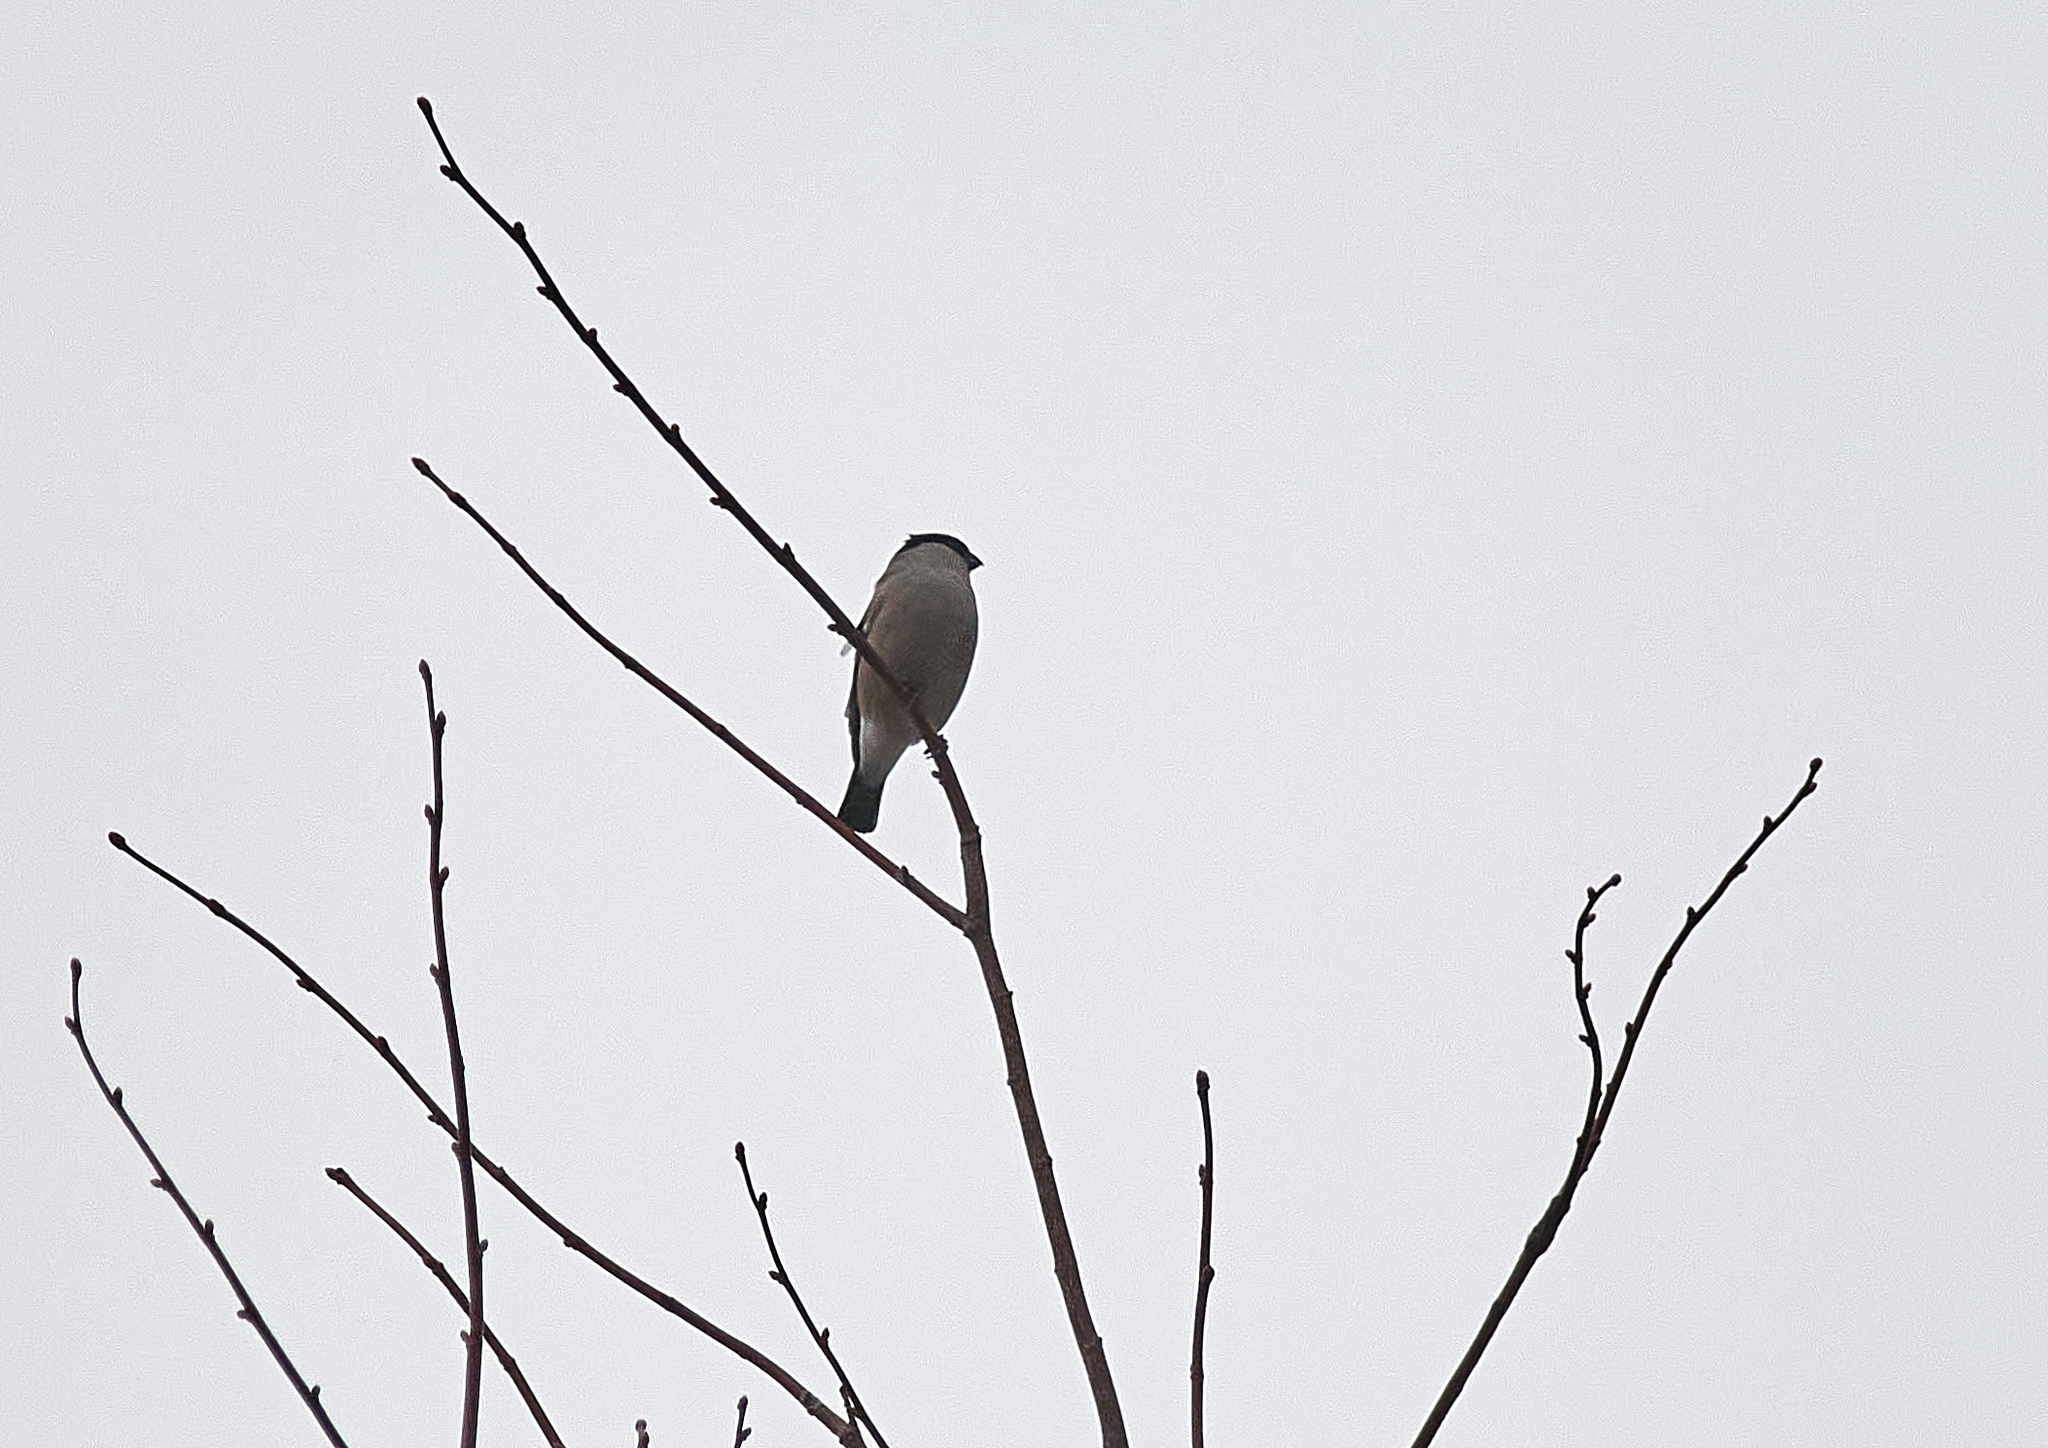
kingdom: Animalia
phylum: Chordata
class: Aves
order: Passeriformes
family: Fringillidae
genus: Pyrrhula
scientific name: Pyrrhula pyrrhula
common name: Eurasian bullfinch
